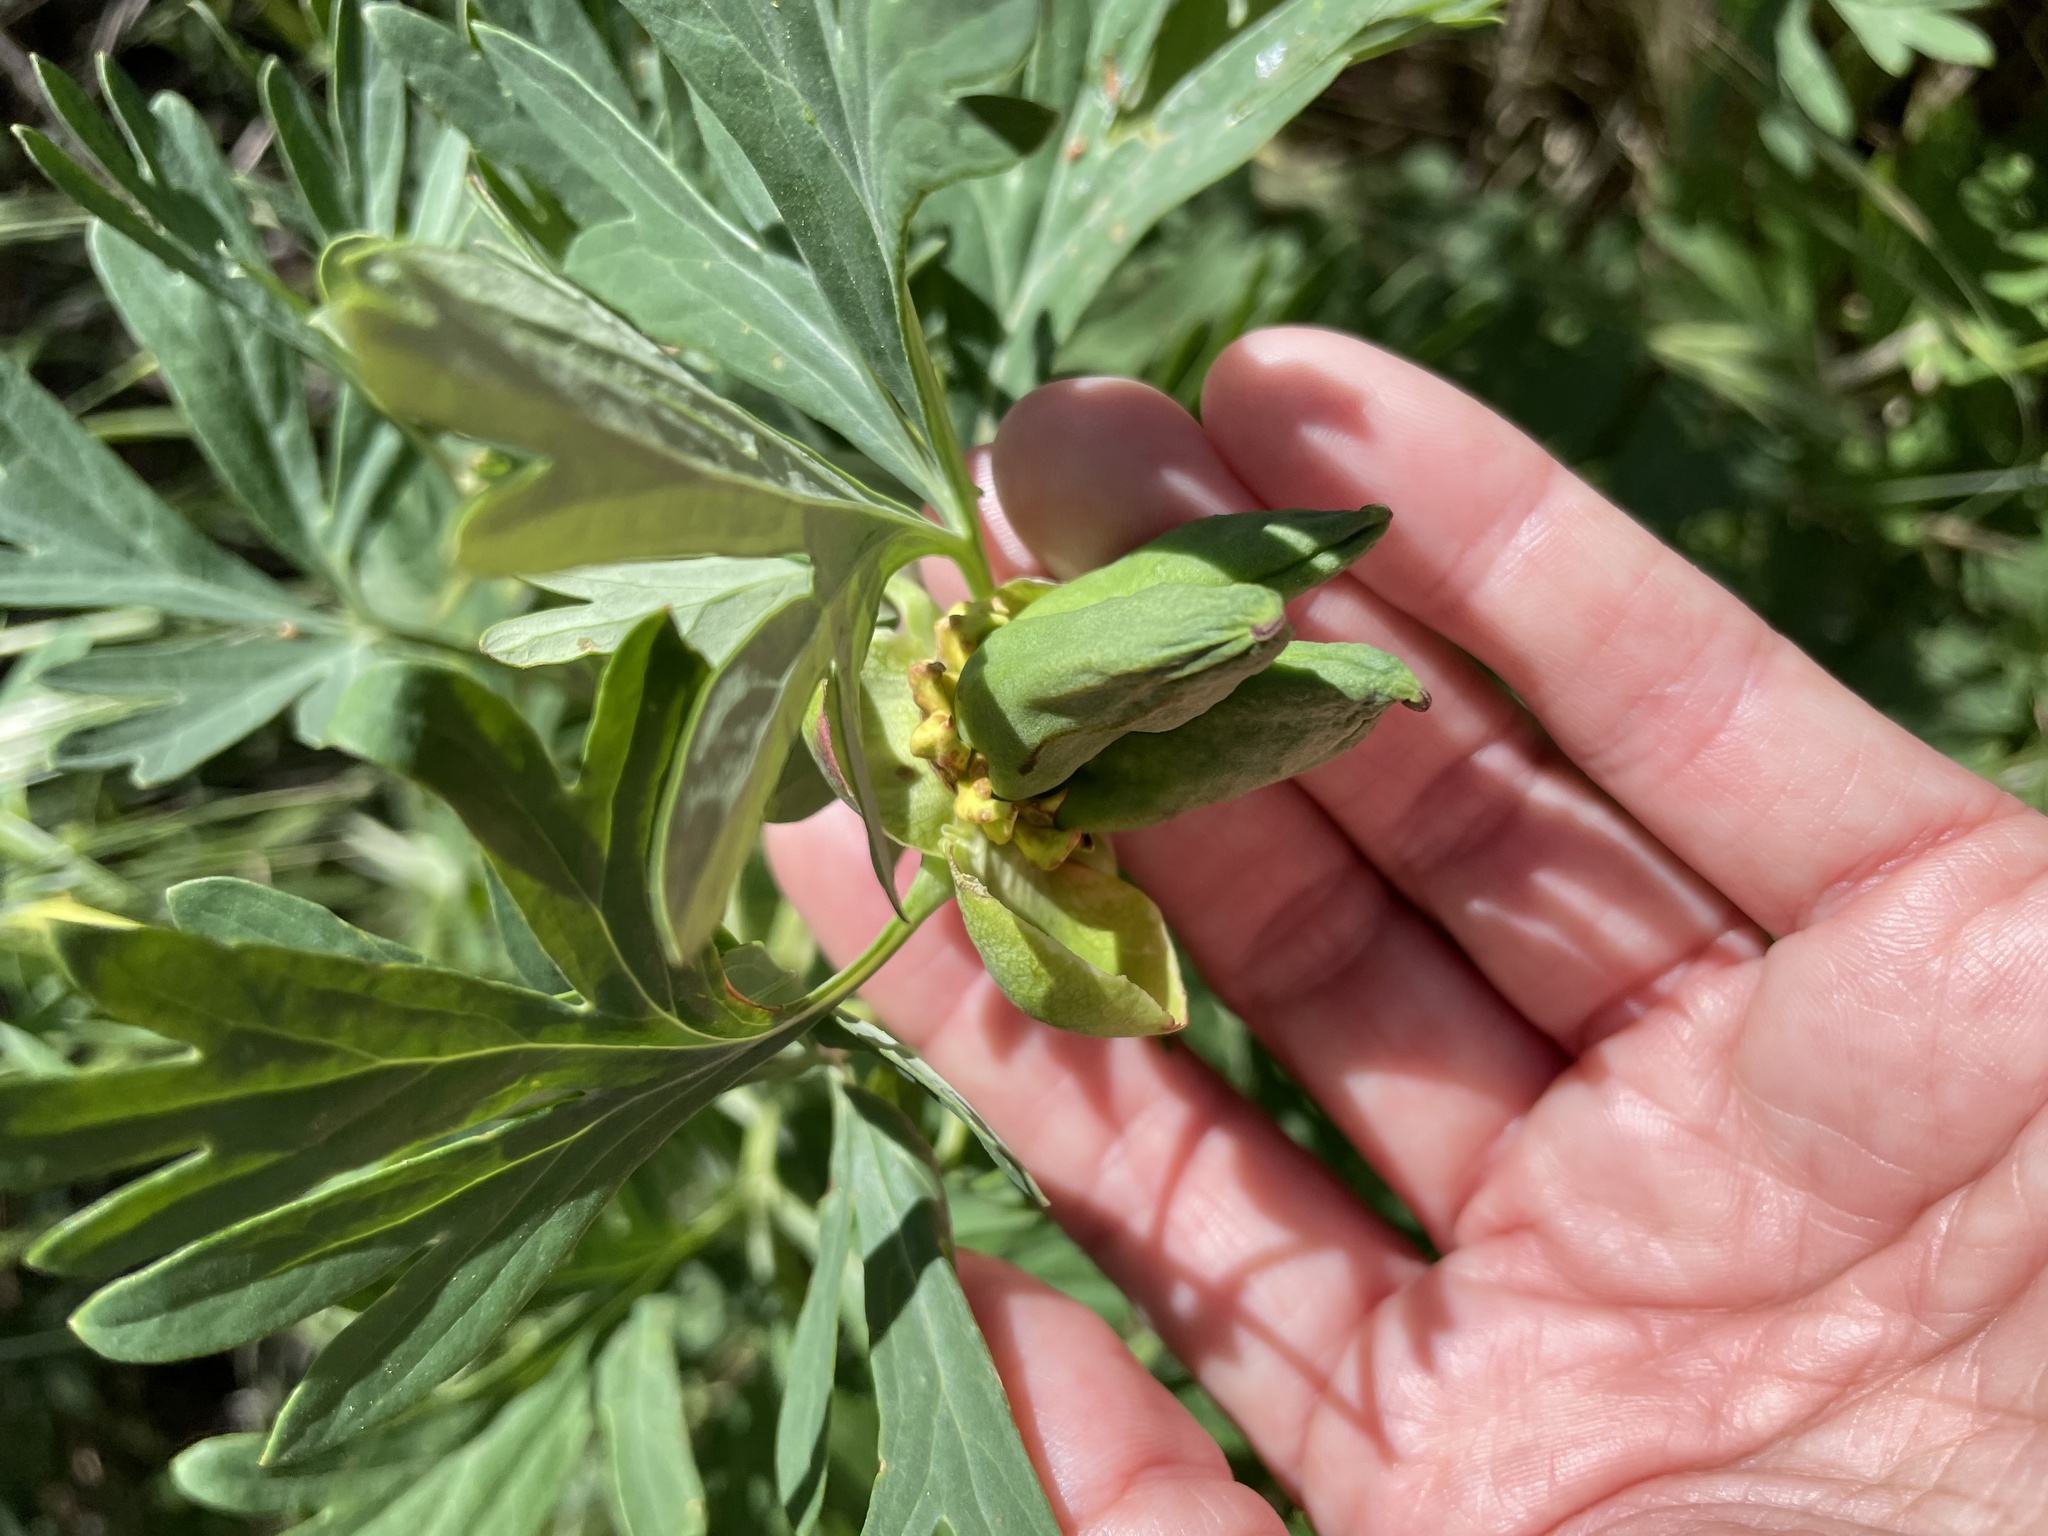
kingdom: Plantae
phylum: Tracheophyta
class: Magnoliopsida
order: Saxifragales
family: Paeoniaceae
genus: Paeonia
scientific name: Paeonia californica
